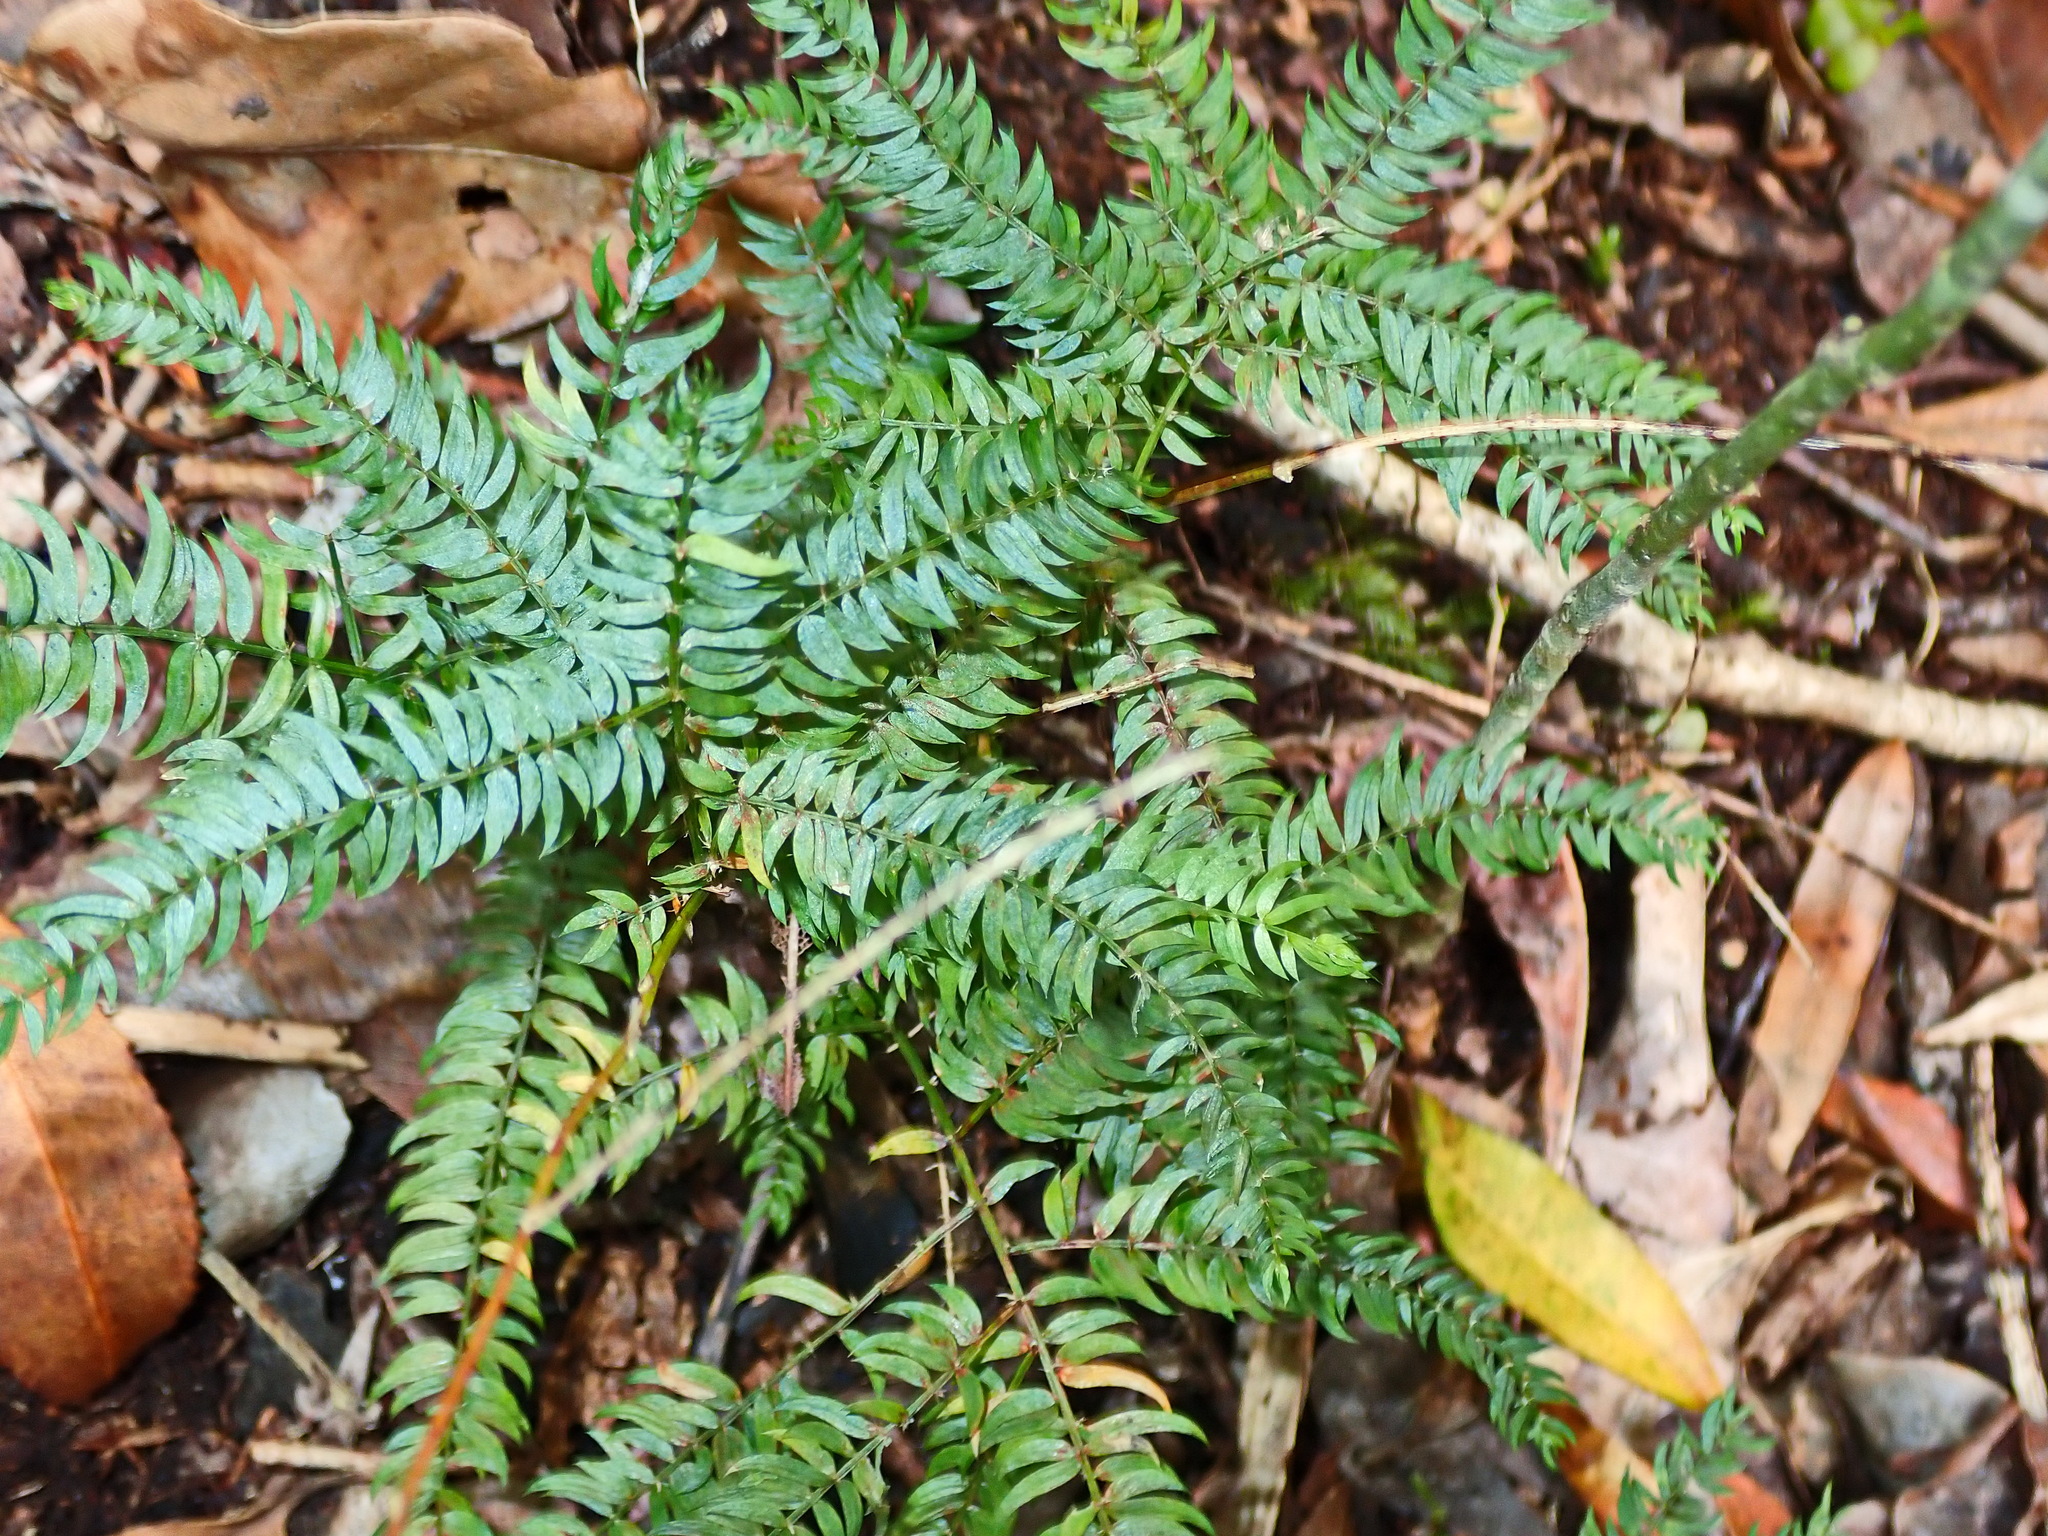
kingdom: Plantae
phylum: Tracheophyta
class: Liliopsida
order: Asparagales
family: Asparagaceae
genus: Asparagus
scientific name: Asparagus scandens
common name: Asparagus-fern
